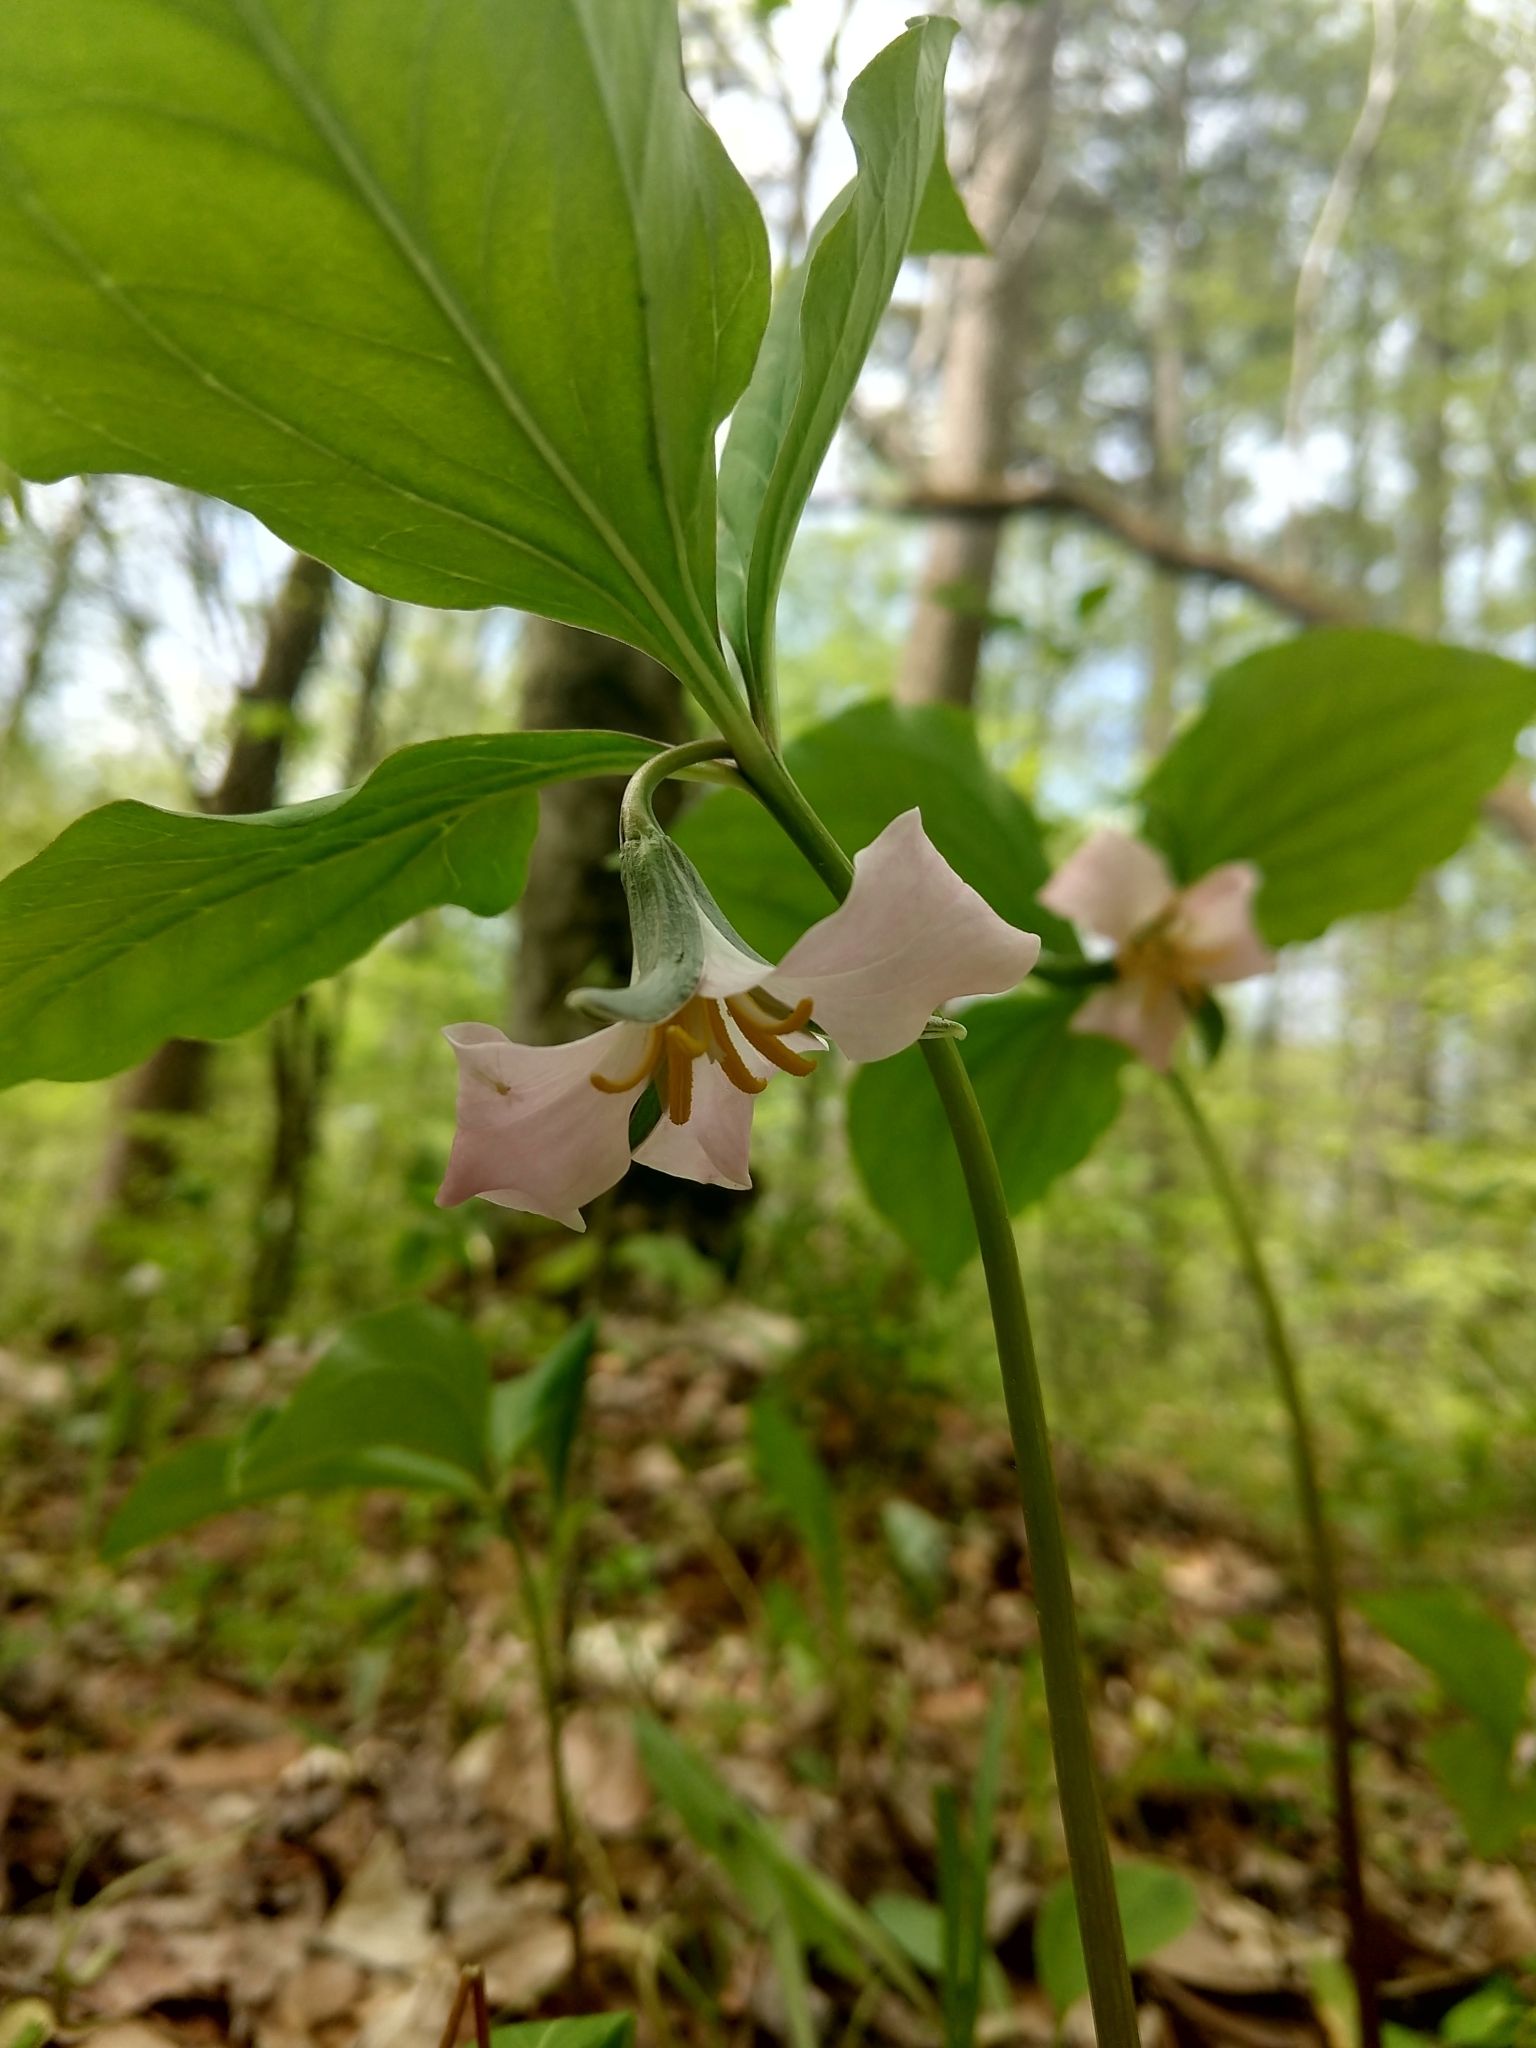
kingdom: Plantae
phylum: Tracheophyta
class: Liliopsida
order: Liliales
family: Melanthiaceae
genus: Trillium
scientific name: Trillium catesbaei
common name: Bashful trillium
